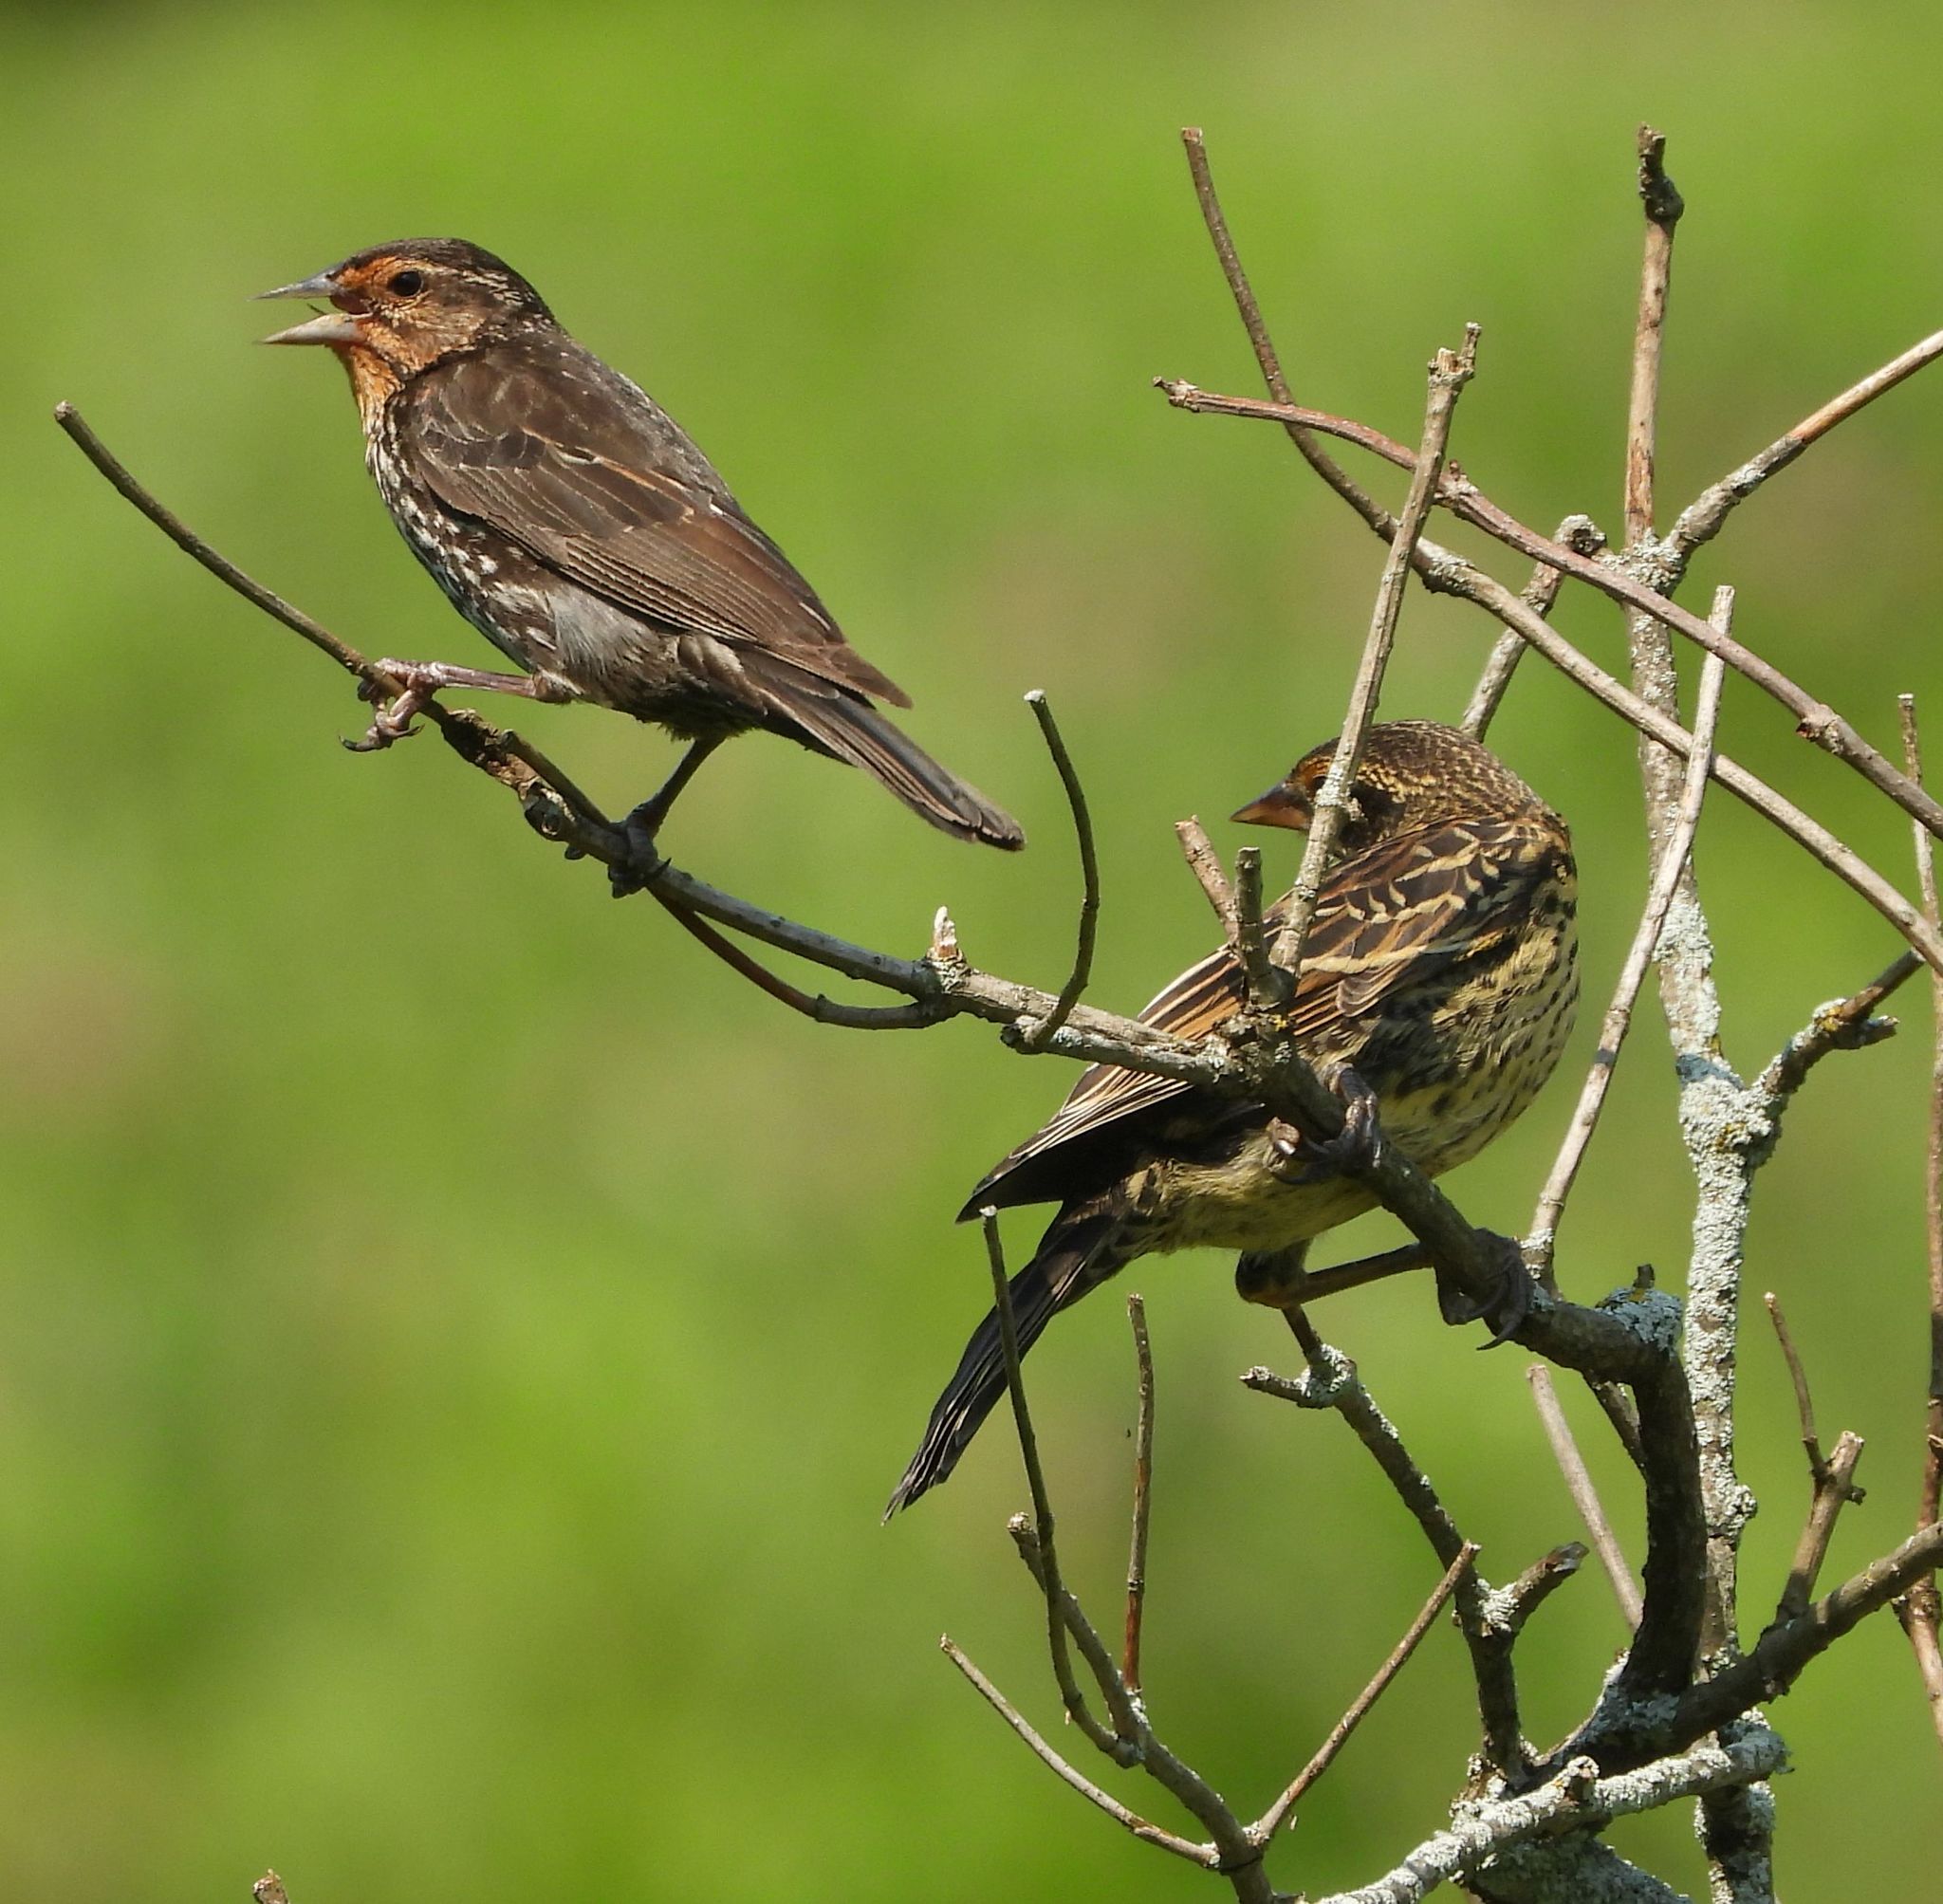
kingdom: Animalia
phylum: Chordata
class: Aves
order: Passeriformes
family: Icteridae
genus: Agelaius
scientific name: Agelaius phoeniceus
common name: Red-winged blackbird
